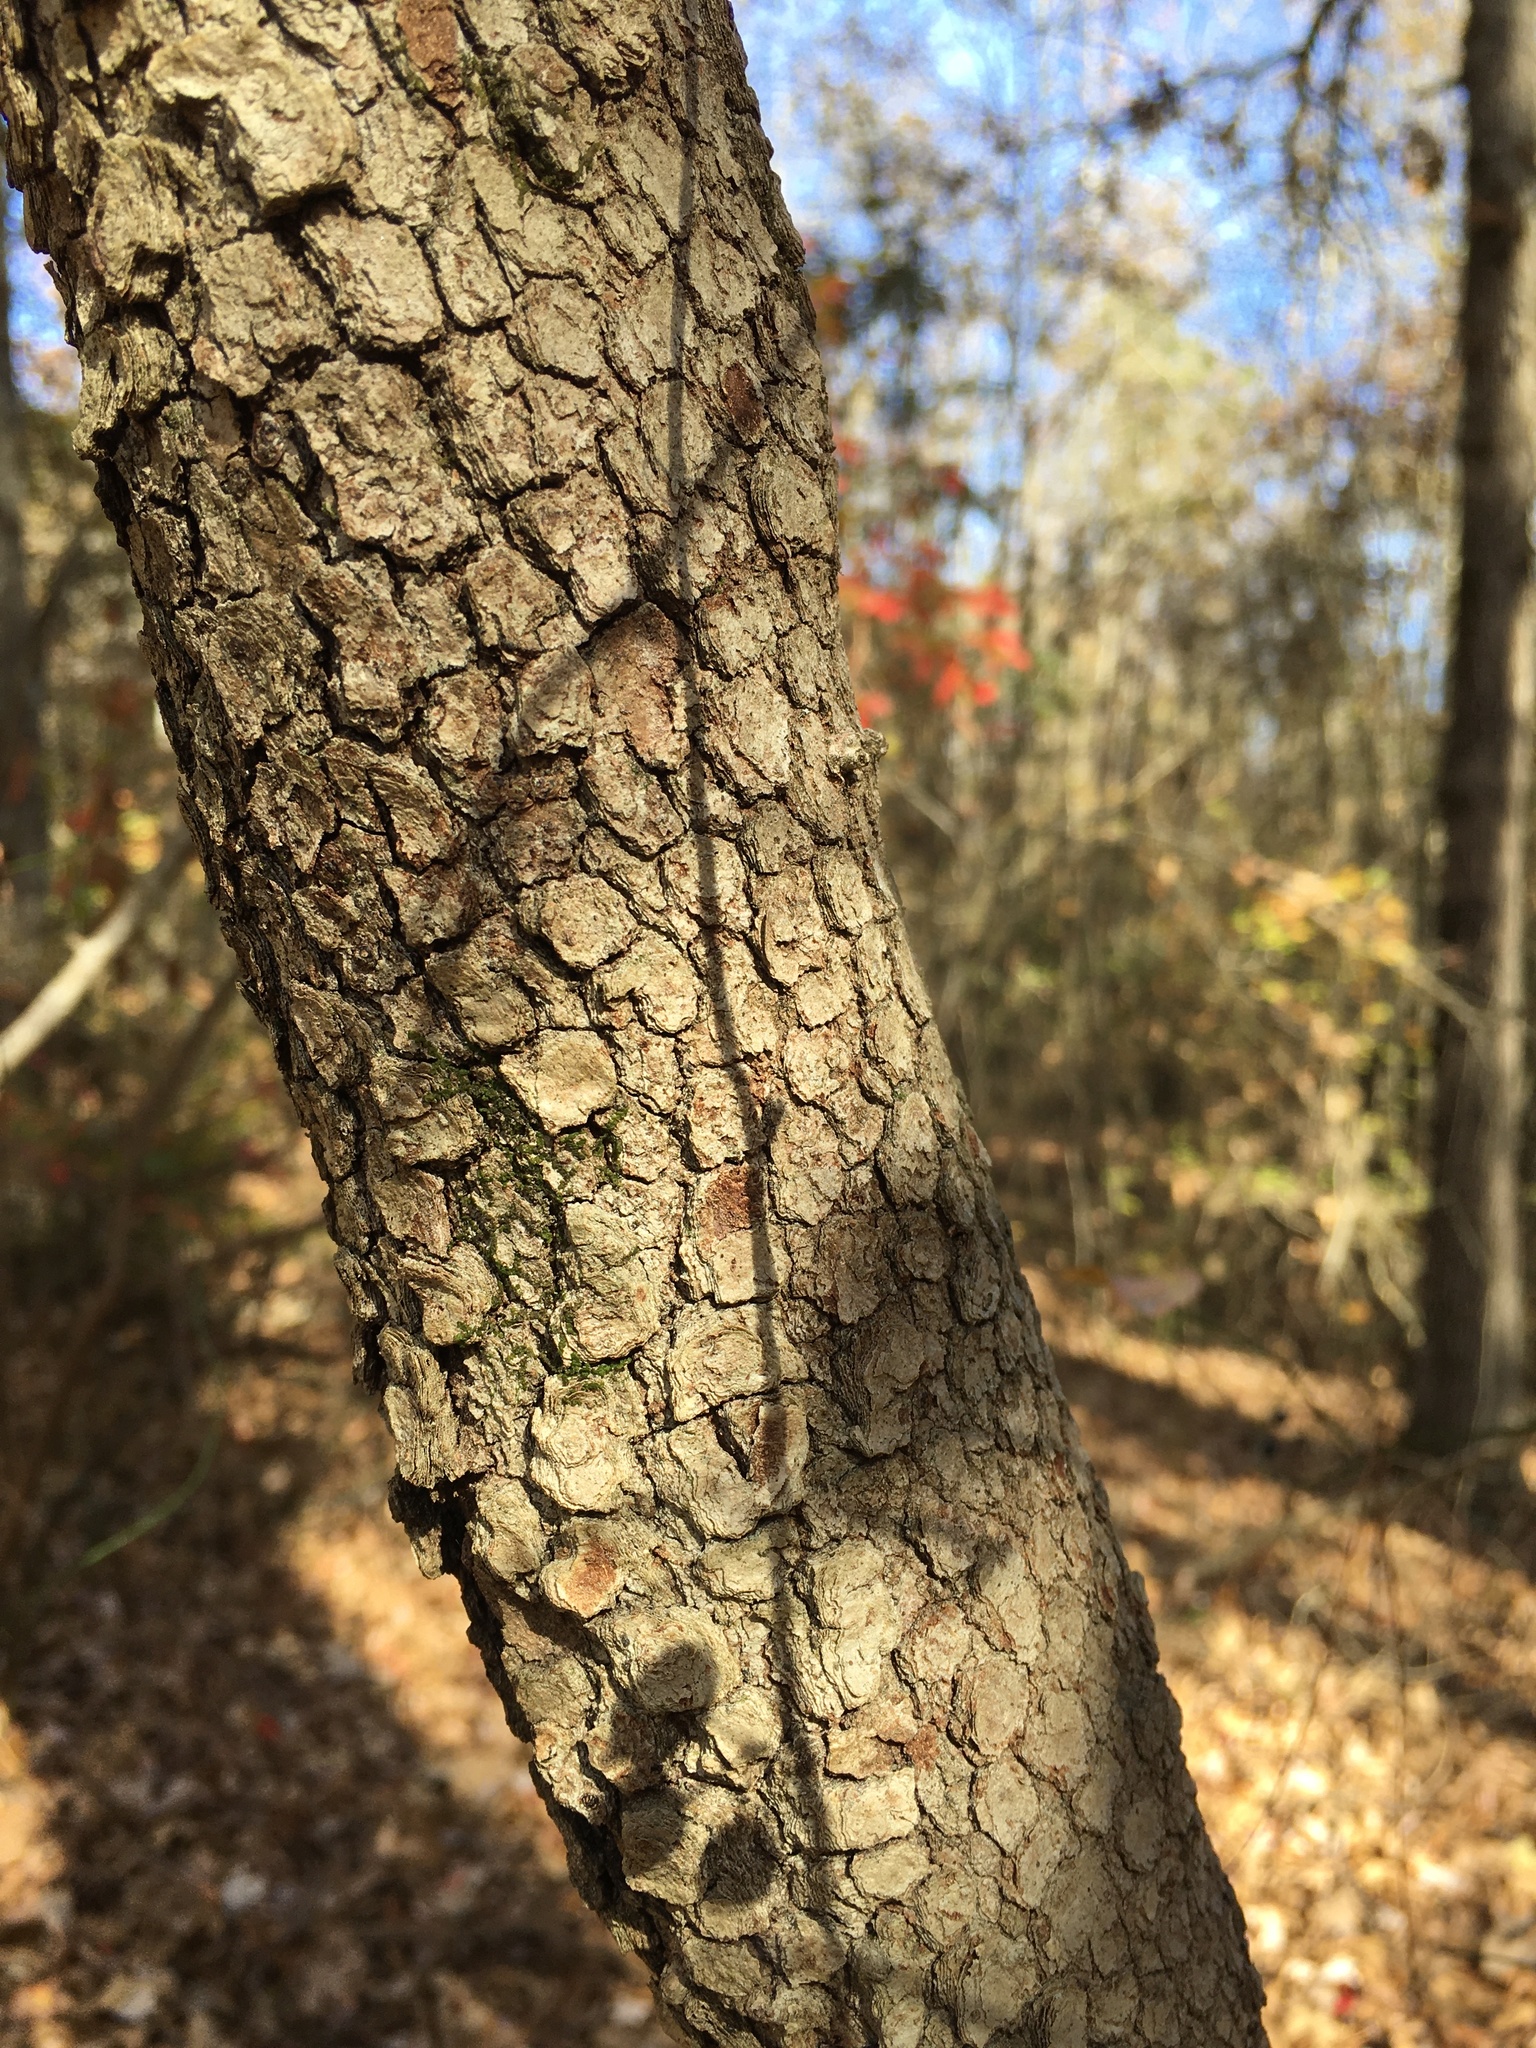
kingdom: Plantae
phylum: Tracheophyta
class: Magnoliopsida
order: Cornales
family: Cornaceae
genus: Cornus
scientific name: Cornus florida
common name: Flowering dogwood
